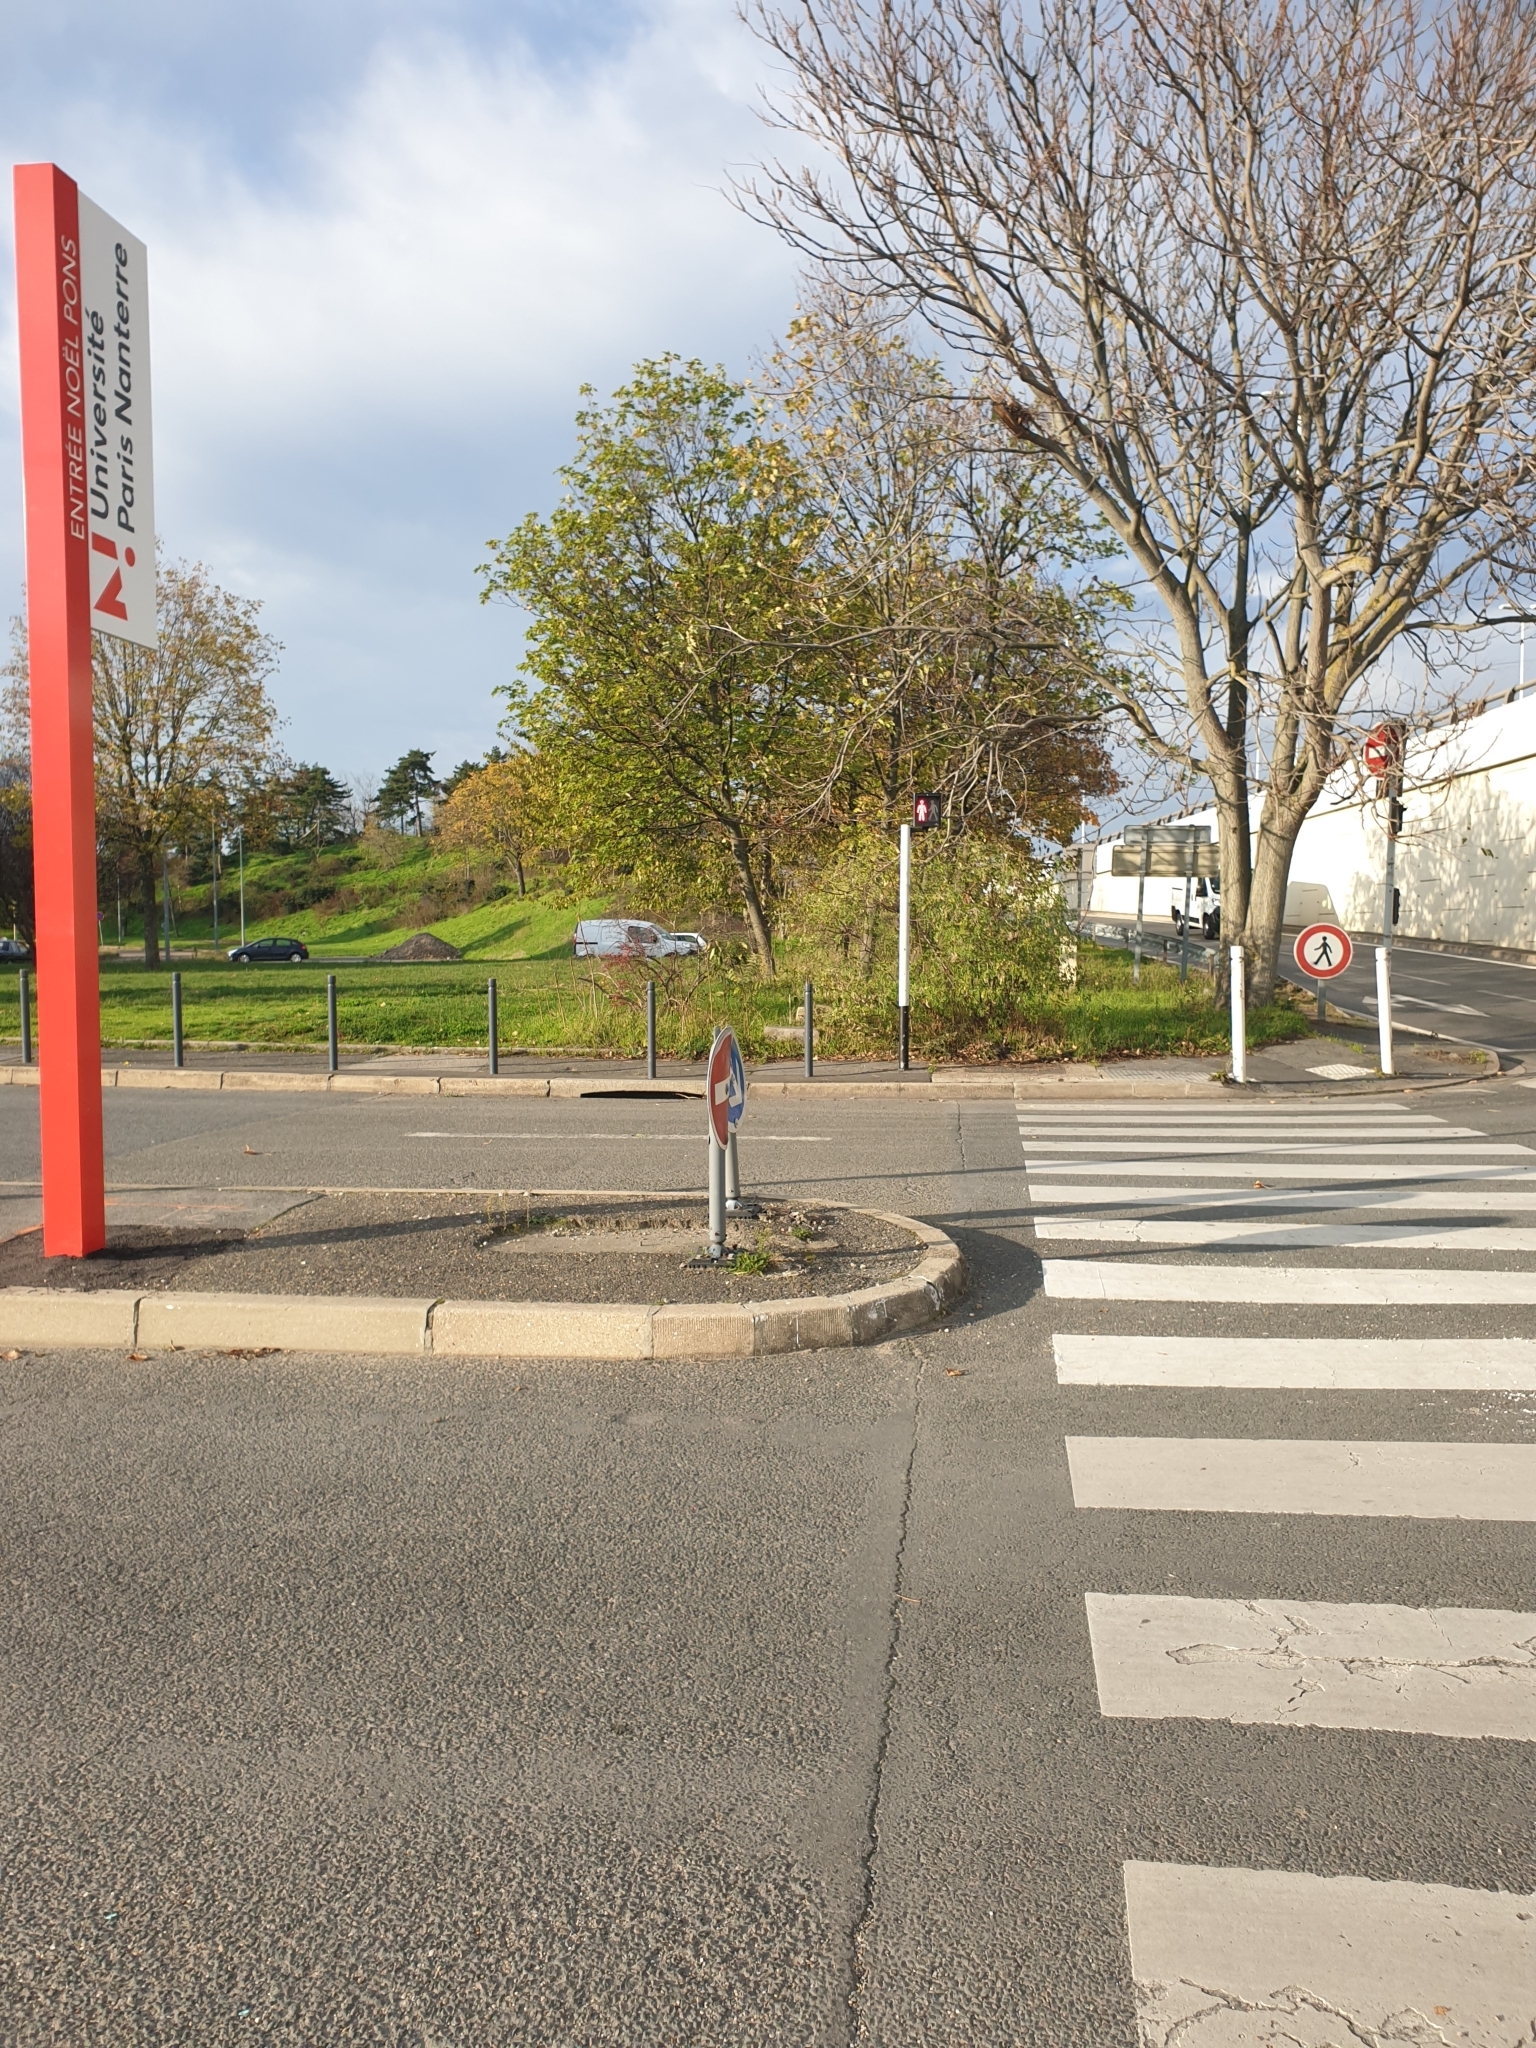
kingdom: Plantae
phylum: Tracheophyta
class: Magnoliopsida
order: Fabales
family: Fabaceae
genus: Colutea
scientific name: Colutea arborescens
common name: Bladder-senna
